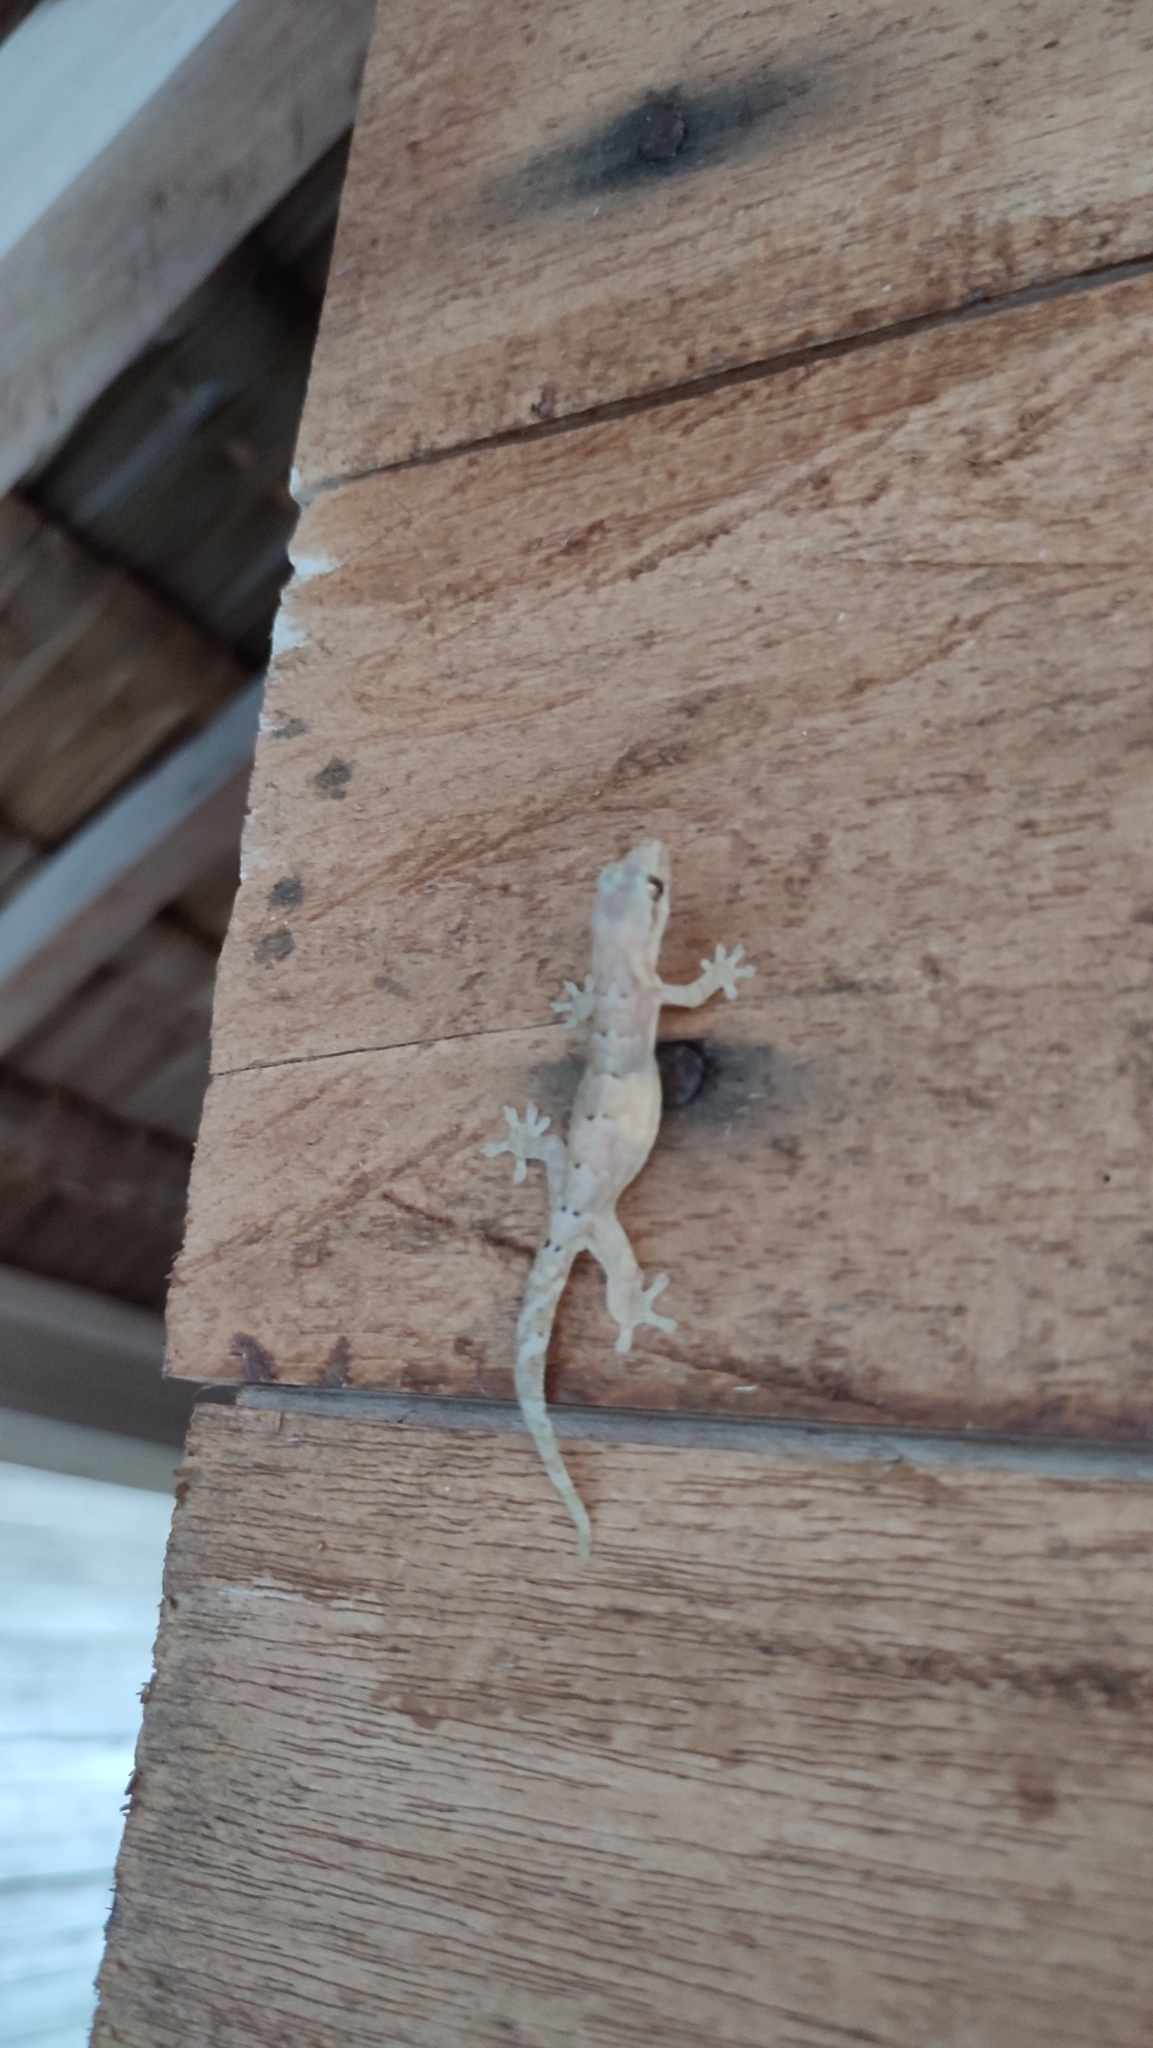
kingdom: Animalia
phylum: Chordata
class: Squamata
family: Gekkonidae
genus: Lepidodactylus
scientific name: Lepidodactylus lugubris
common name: Mourning gecko
